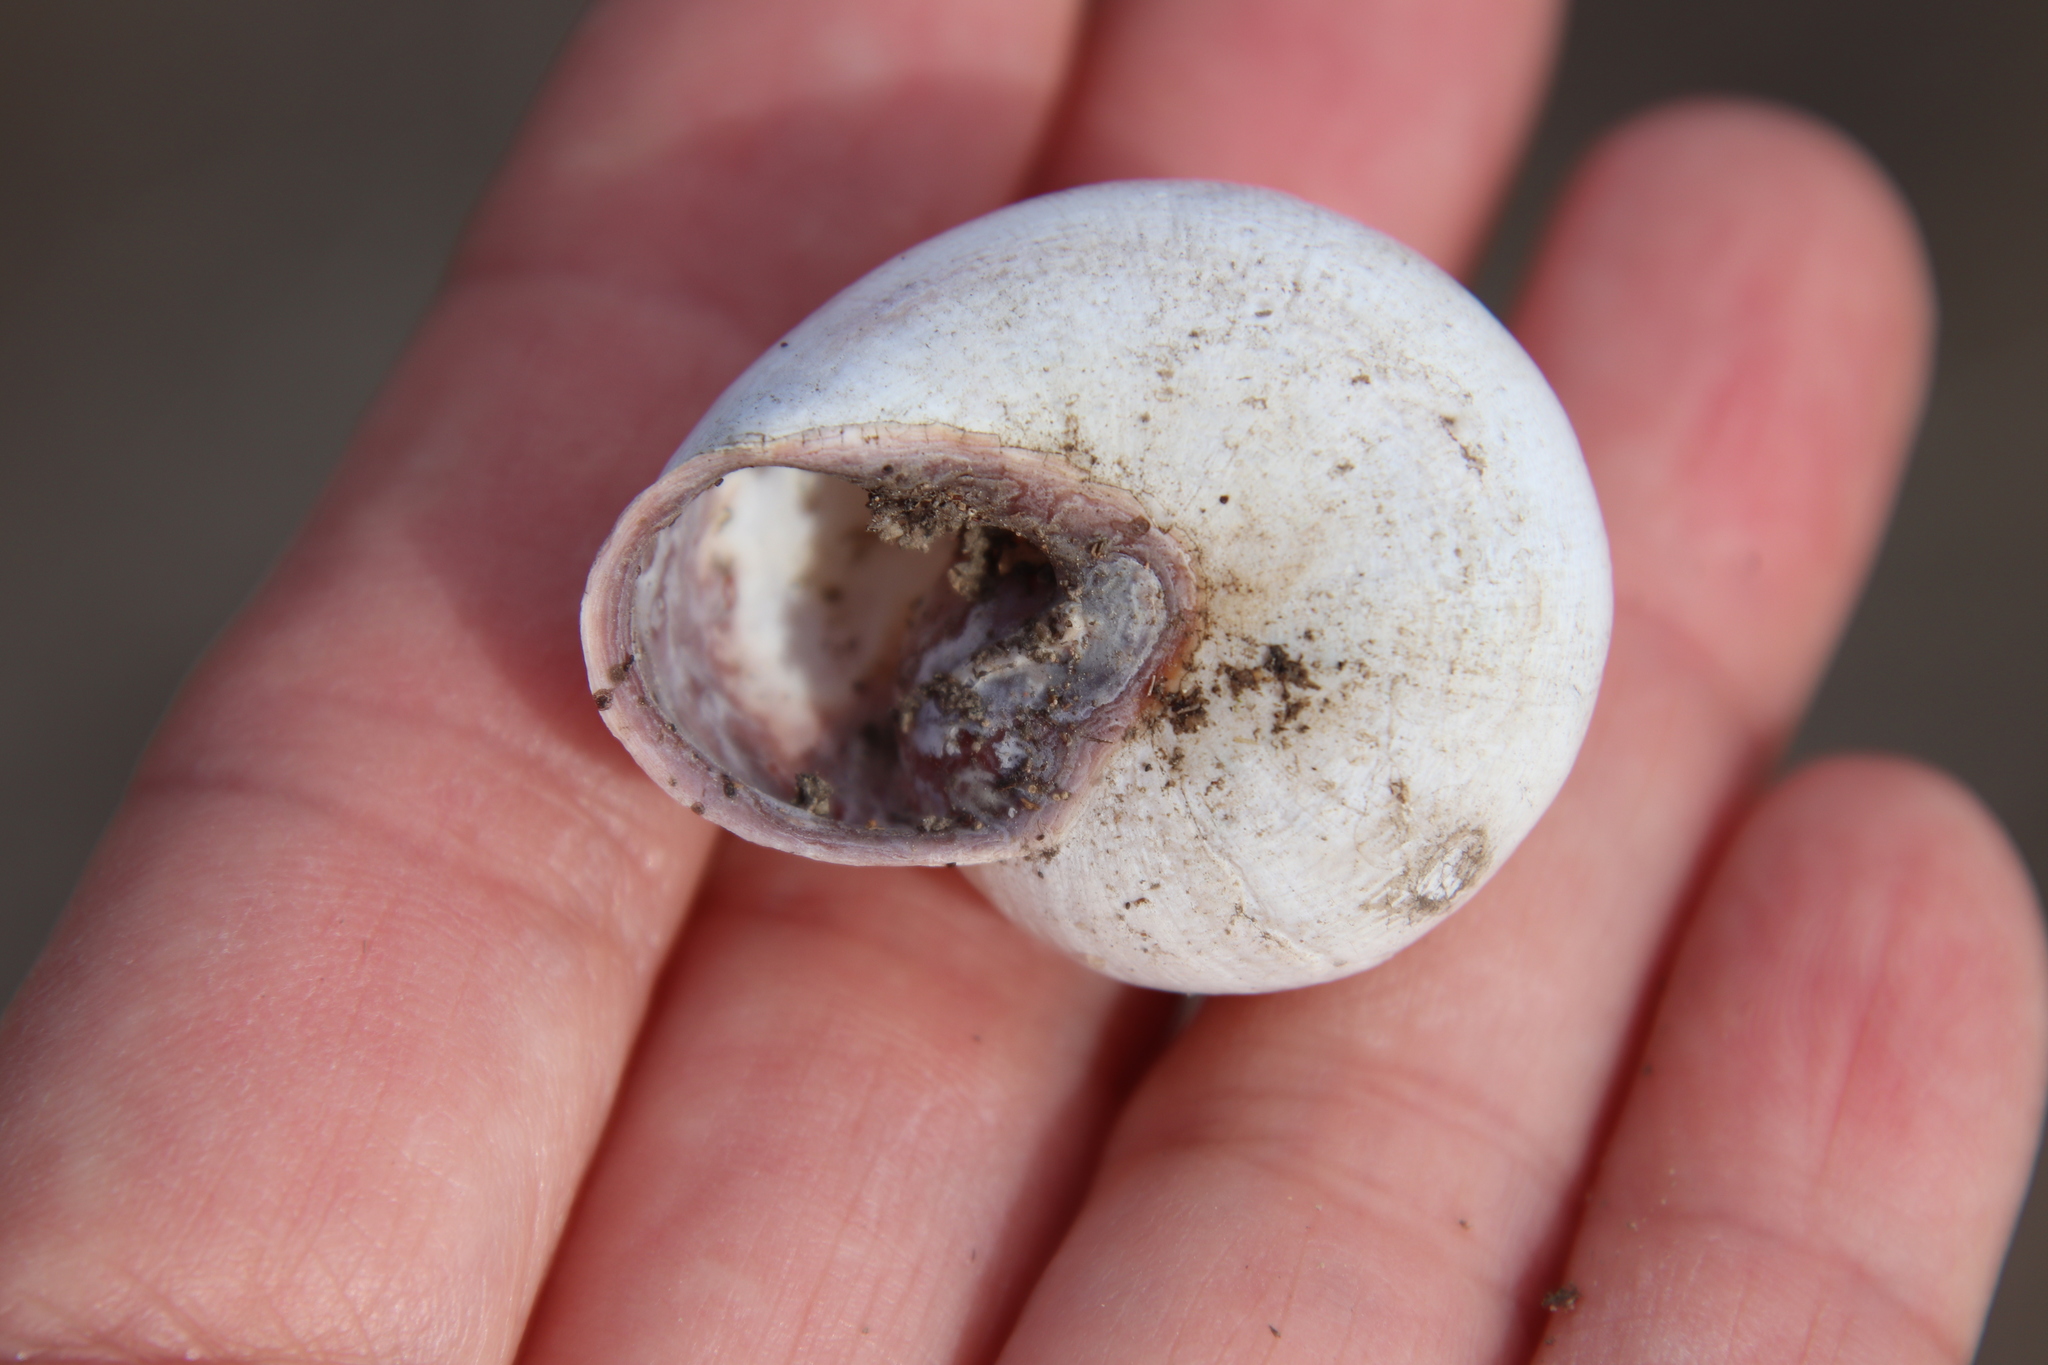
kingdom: Animalia
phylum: Mollusca
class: Gastropoda
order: Stylommatophora
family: Helicidae
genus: Otala
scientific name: Otala lactea
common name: Milk snail
